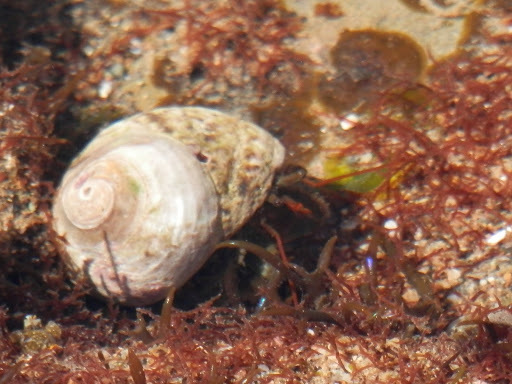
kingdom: Animalia
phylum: Arthropoda
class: Malacostraca
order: Decapoda
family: Paguridae
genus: Pagurus
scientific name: Pagurus
